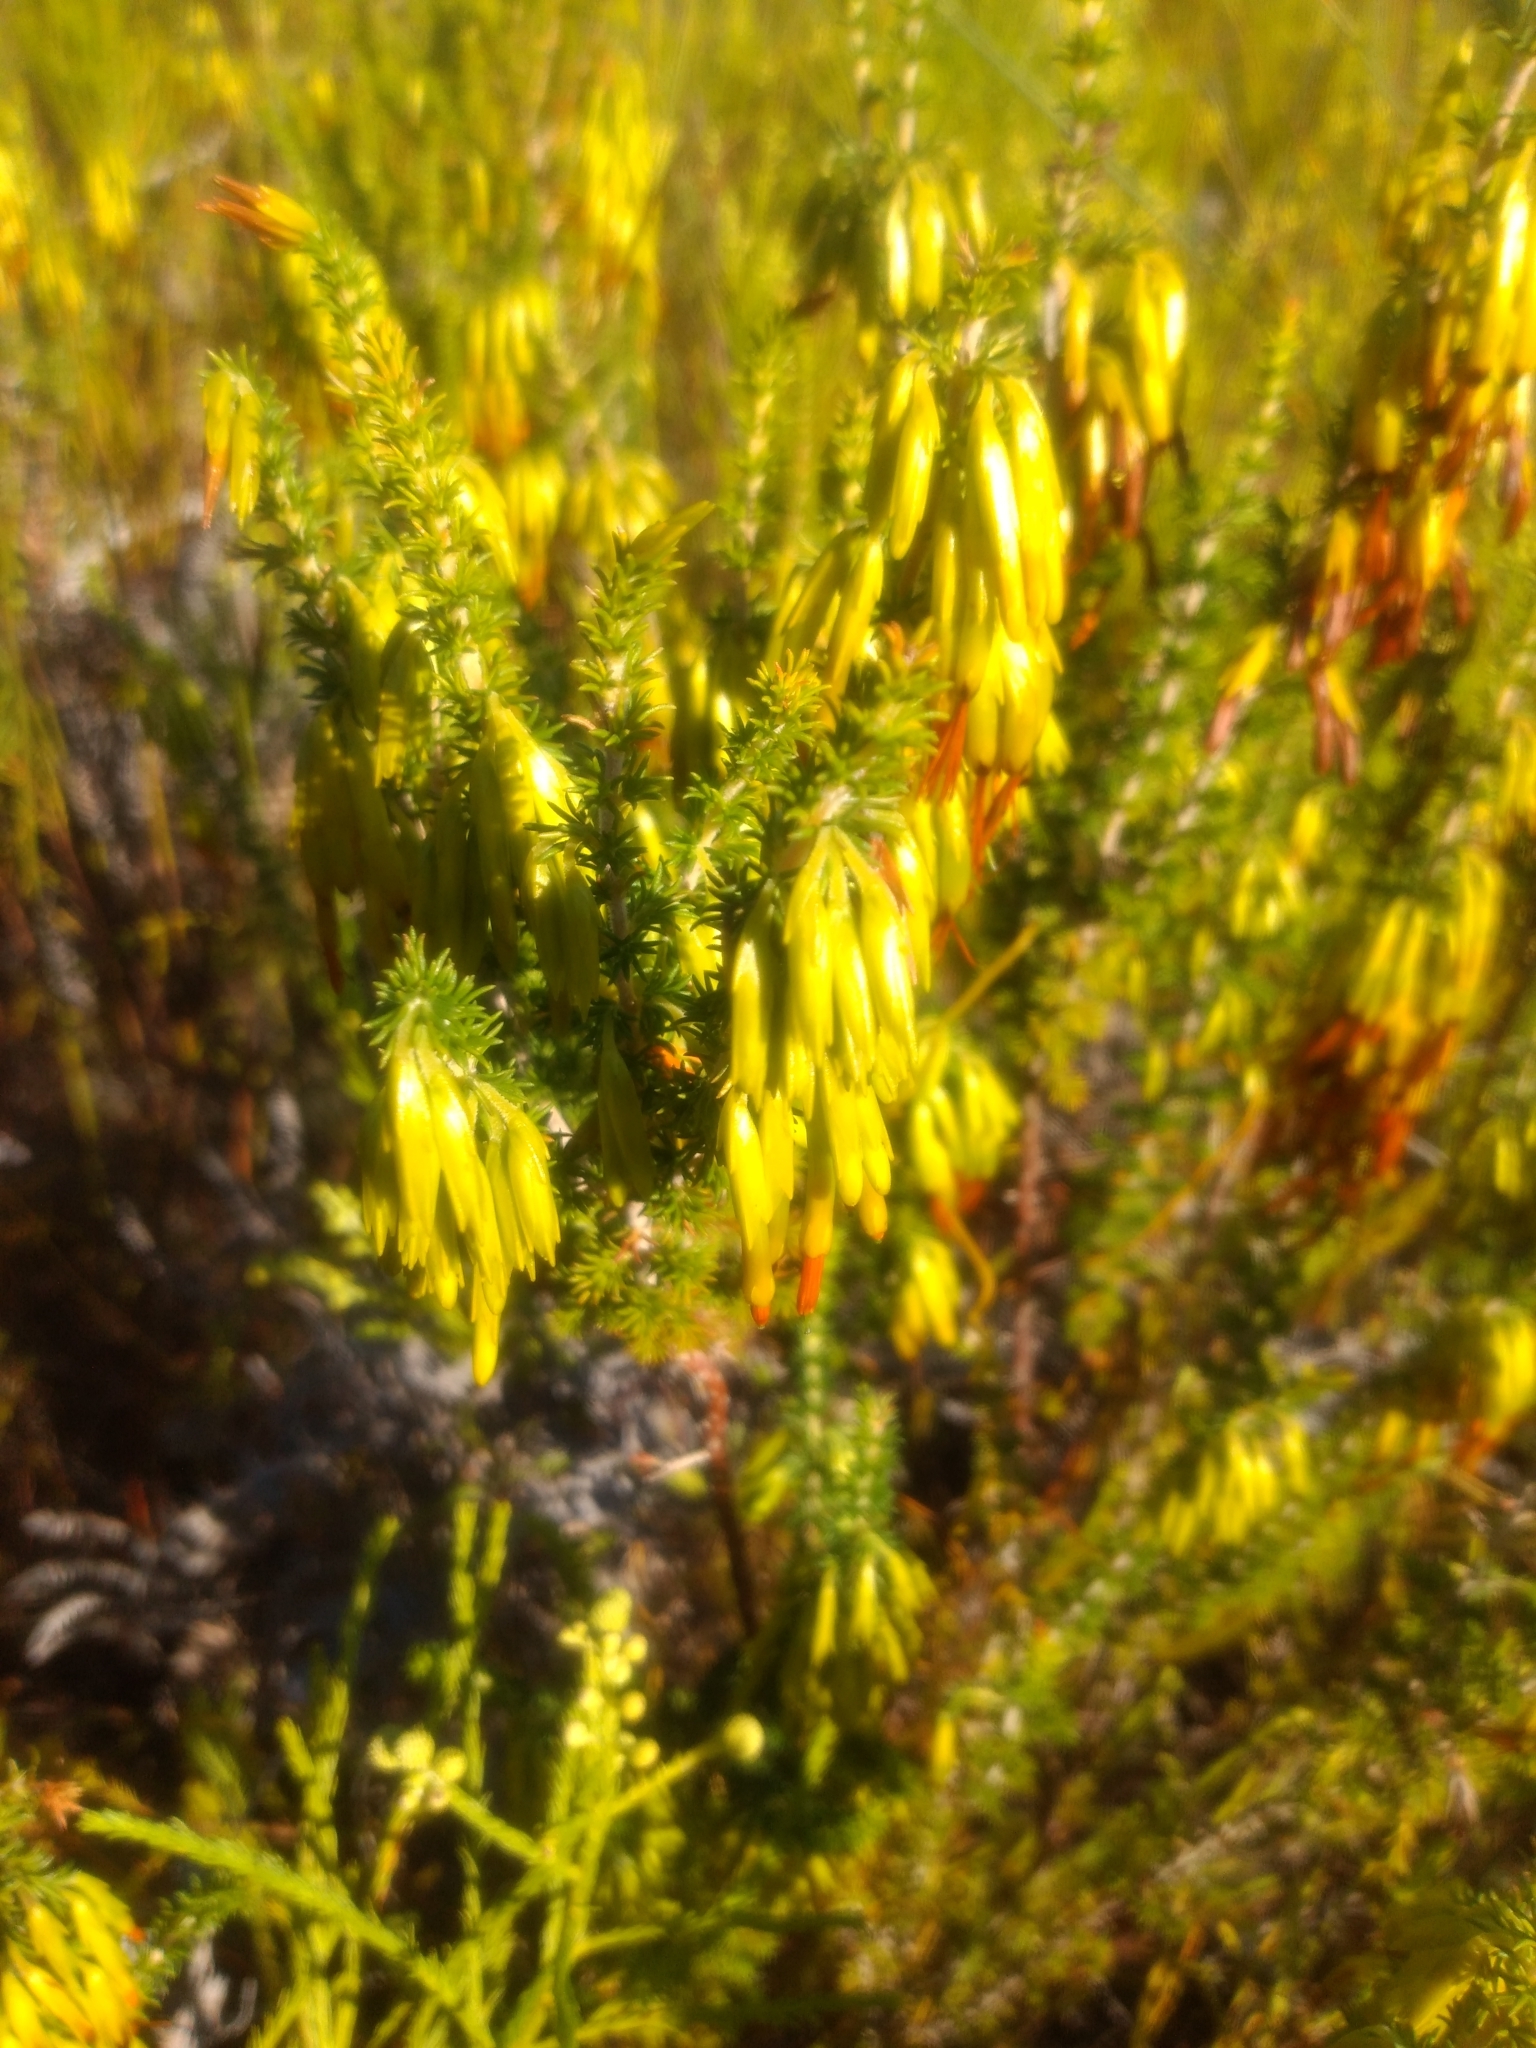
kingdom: Plantae
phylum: Tracheophyta
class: Magnoliopsida
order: Ericales
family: Ericaceae
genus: Erica
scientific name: Erica coccinea
